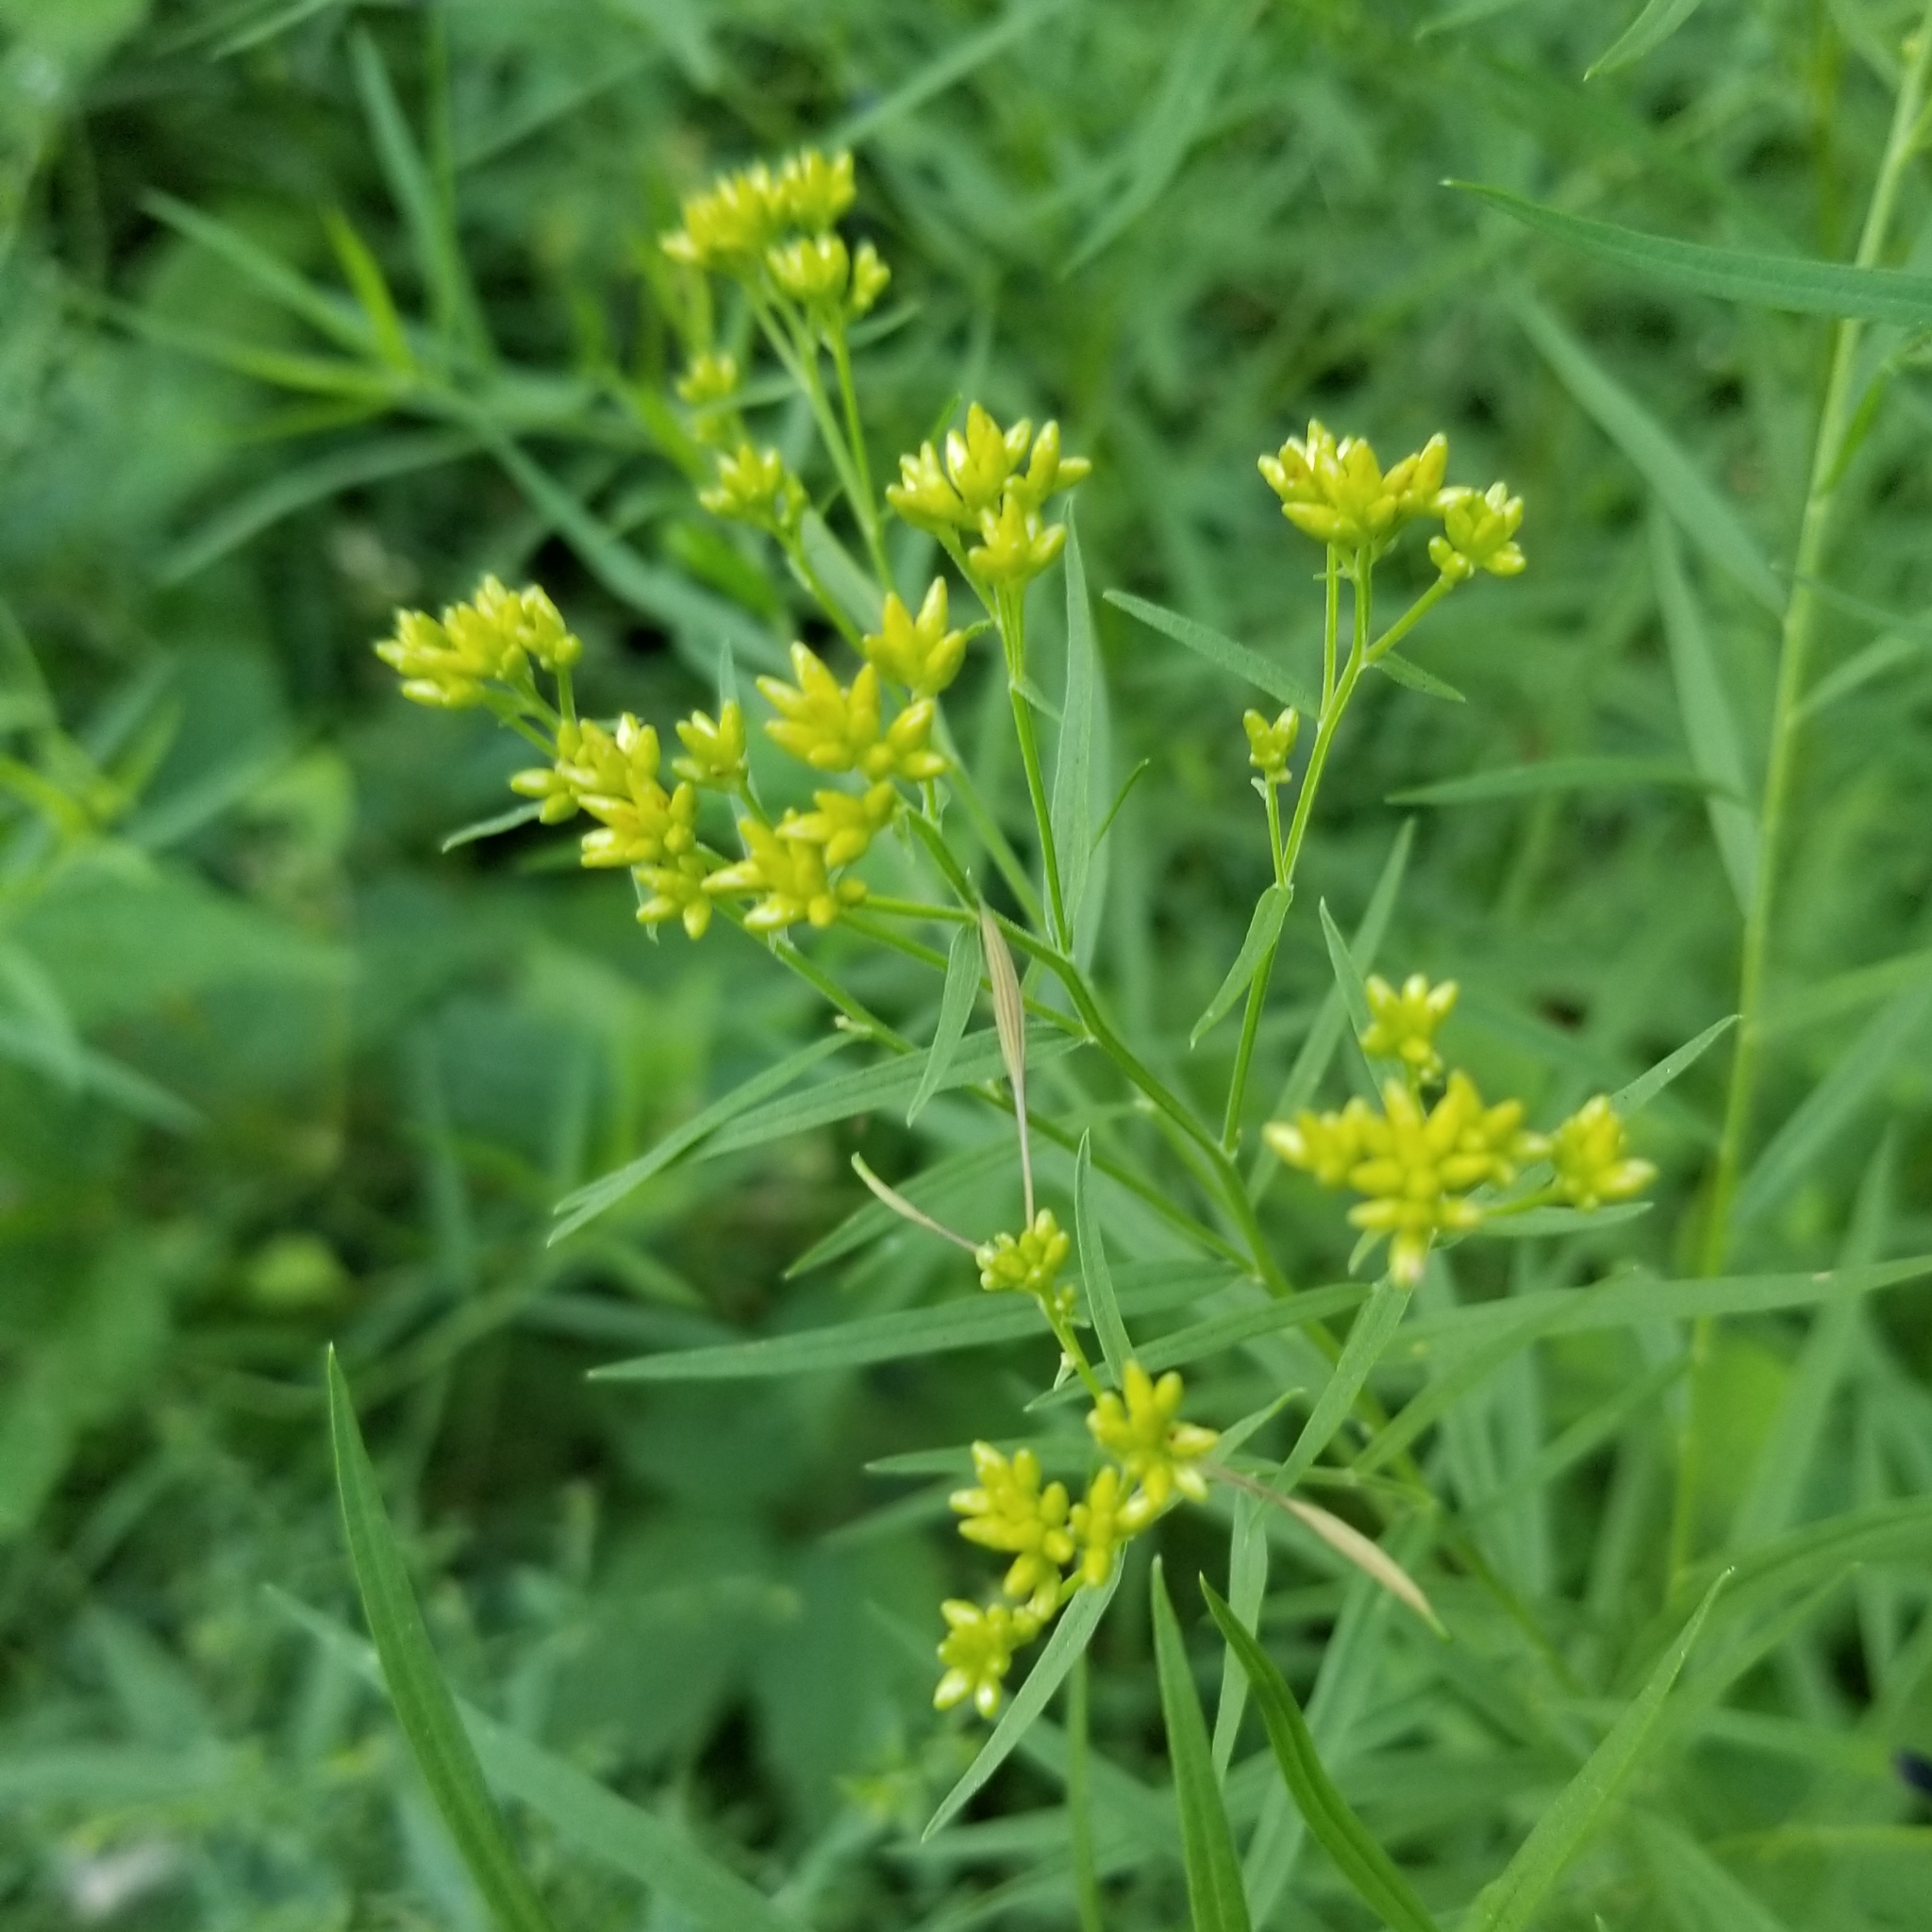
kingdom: Animalia
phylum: Arthropoda
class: Insecta
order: Diptera
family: Cecidomyiidae
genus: Rhopalomyia
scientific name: Rhopalomyia pedicellata
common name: Goldentop pedicellate gall midge
